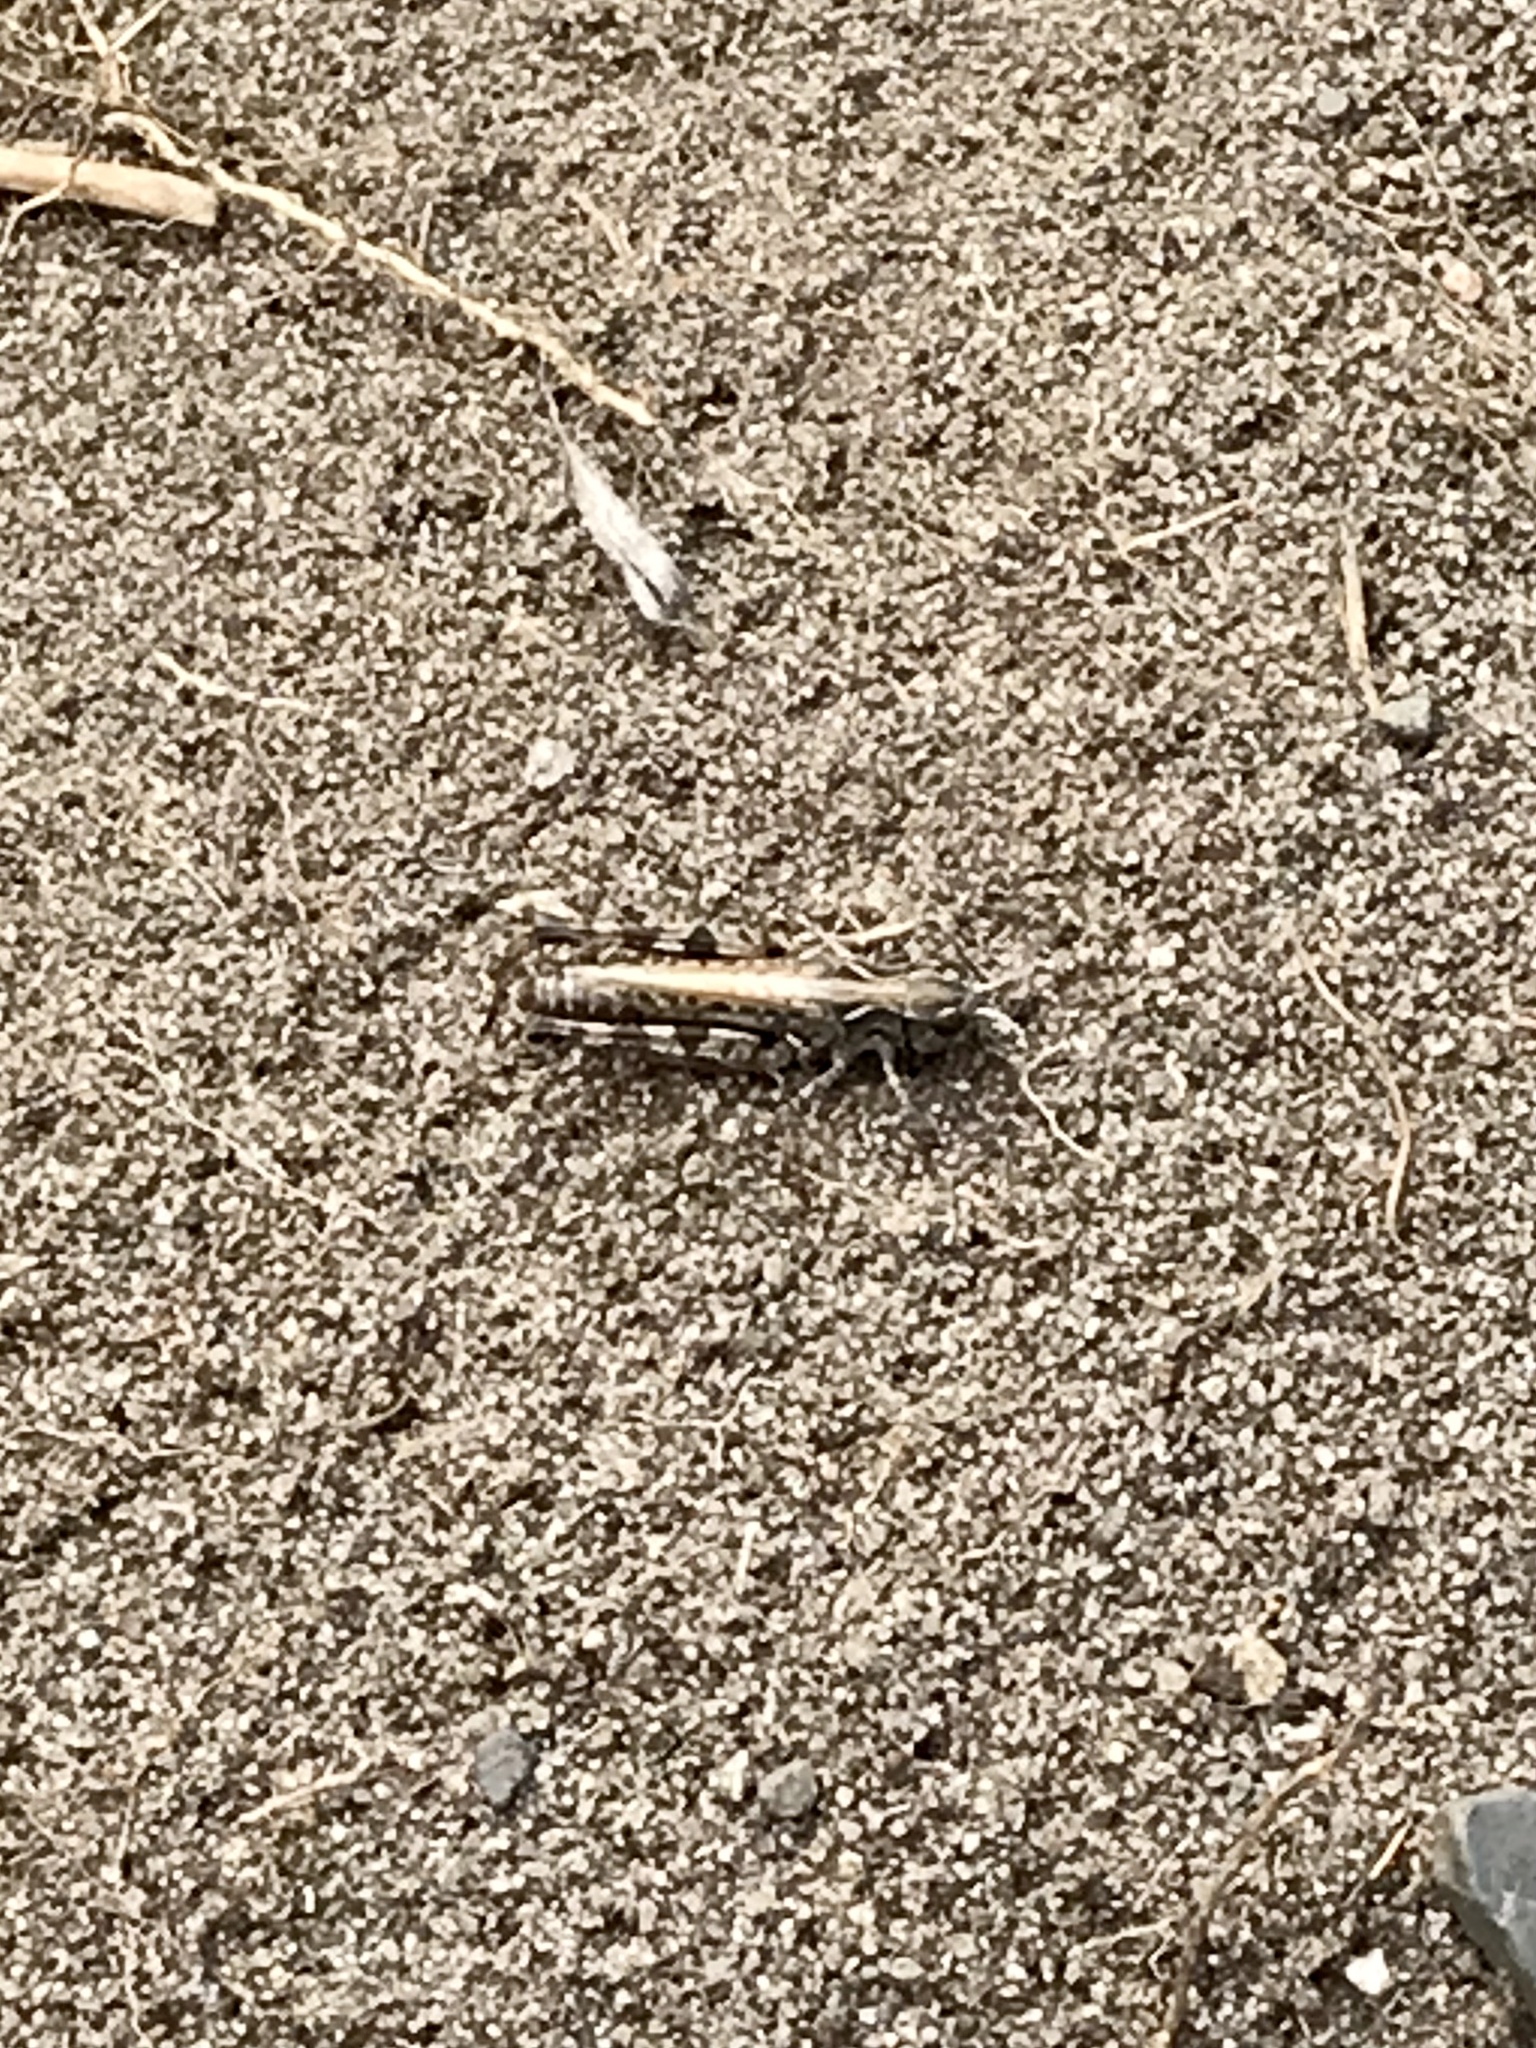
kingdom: Animalia
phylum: Arthropoda
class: Insecta
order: Orthoptera
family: Acrididae
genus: Ageneotettix
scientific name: Ageneotettix deorum
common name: White-whiskered grasshopper
